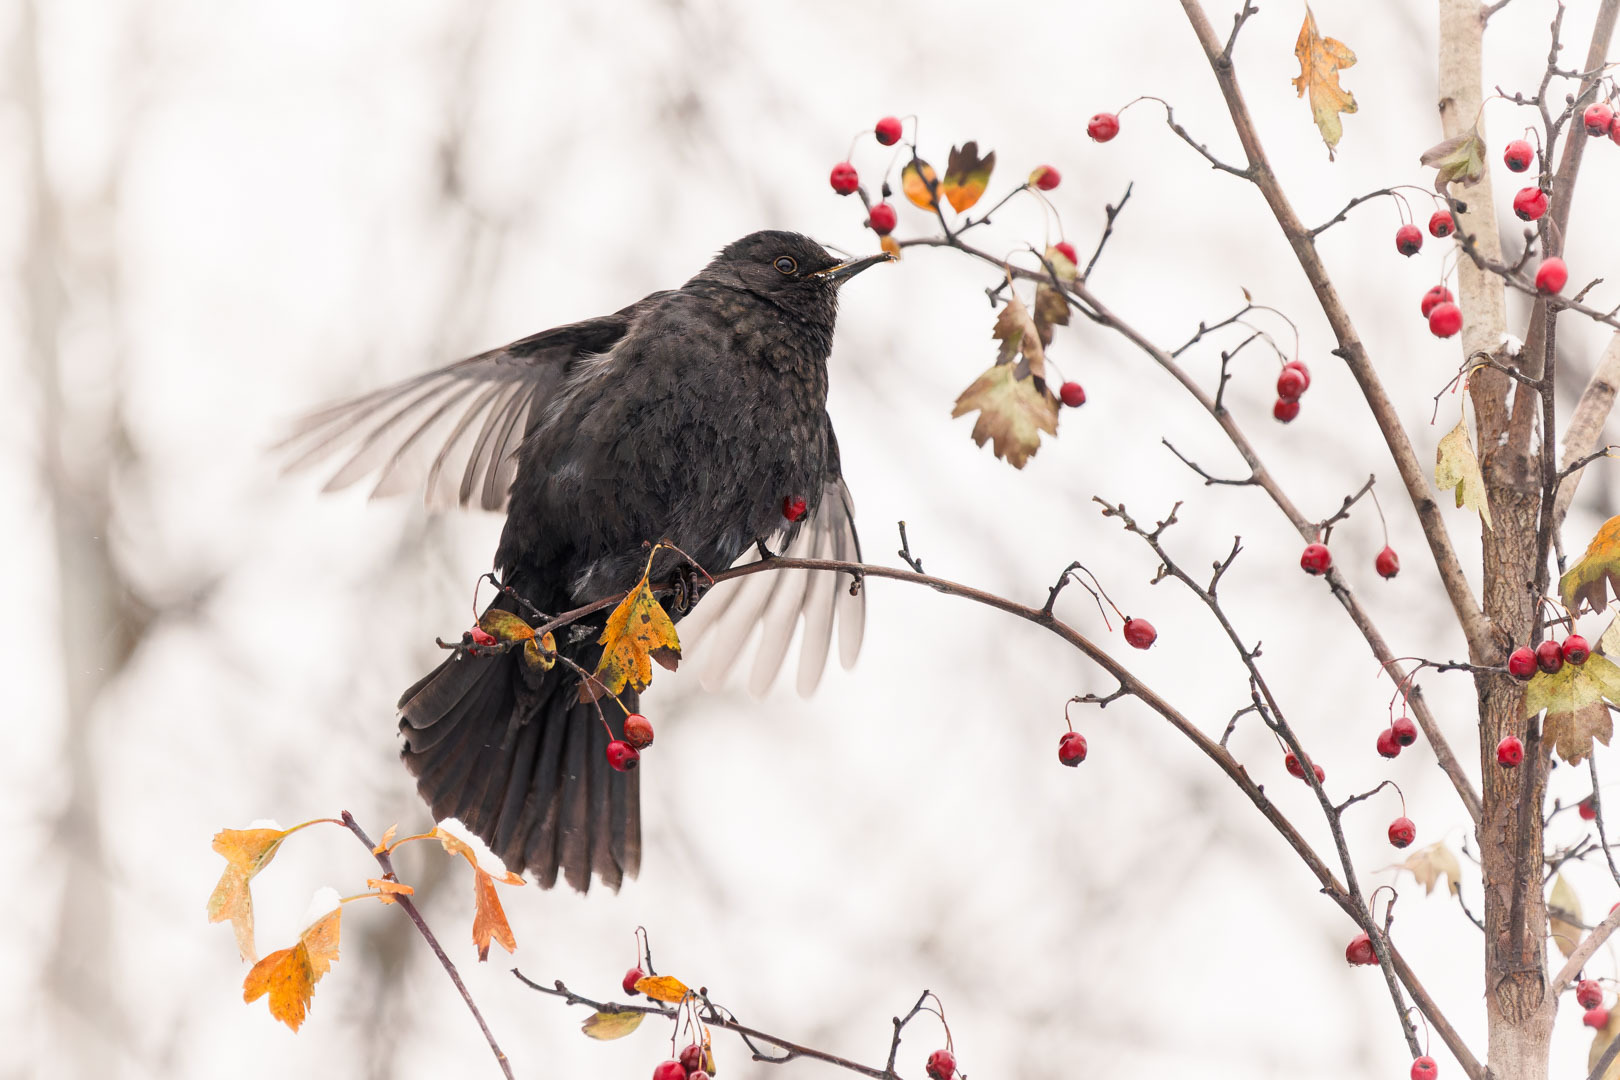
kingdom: Animalia
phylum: Chordata
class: Aves
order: Passeriformes
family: Turdidae
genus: Turdus
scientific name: Turdus merula
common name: Common blackbird
